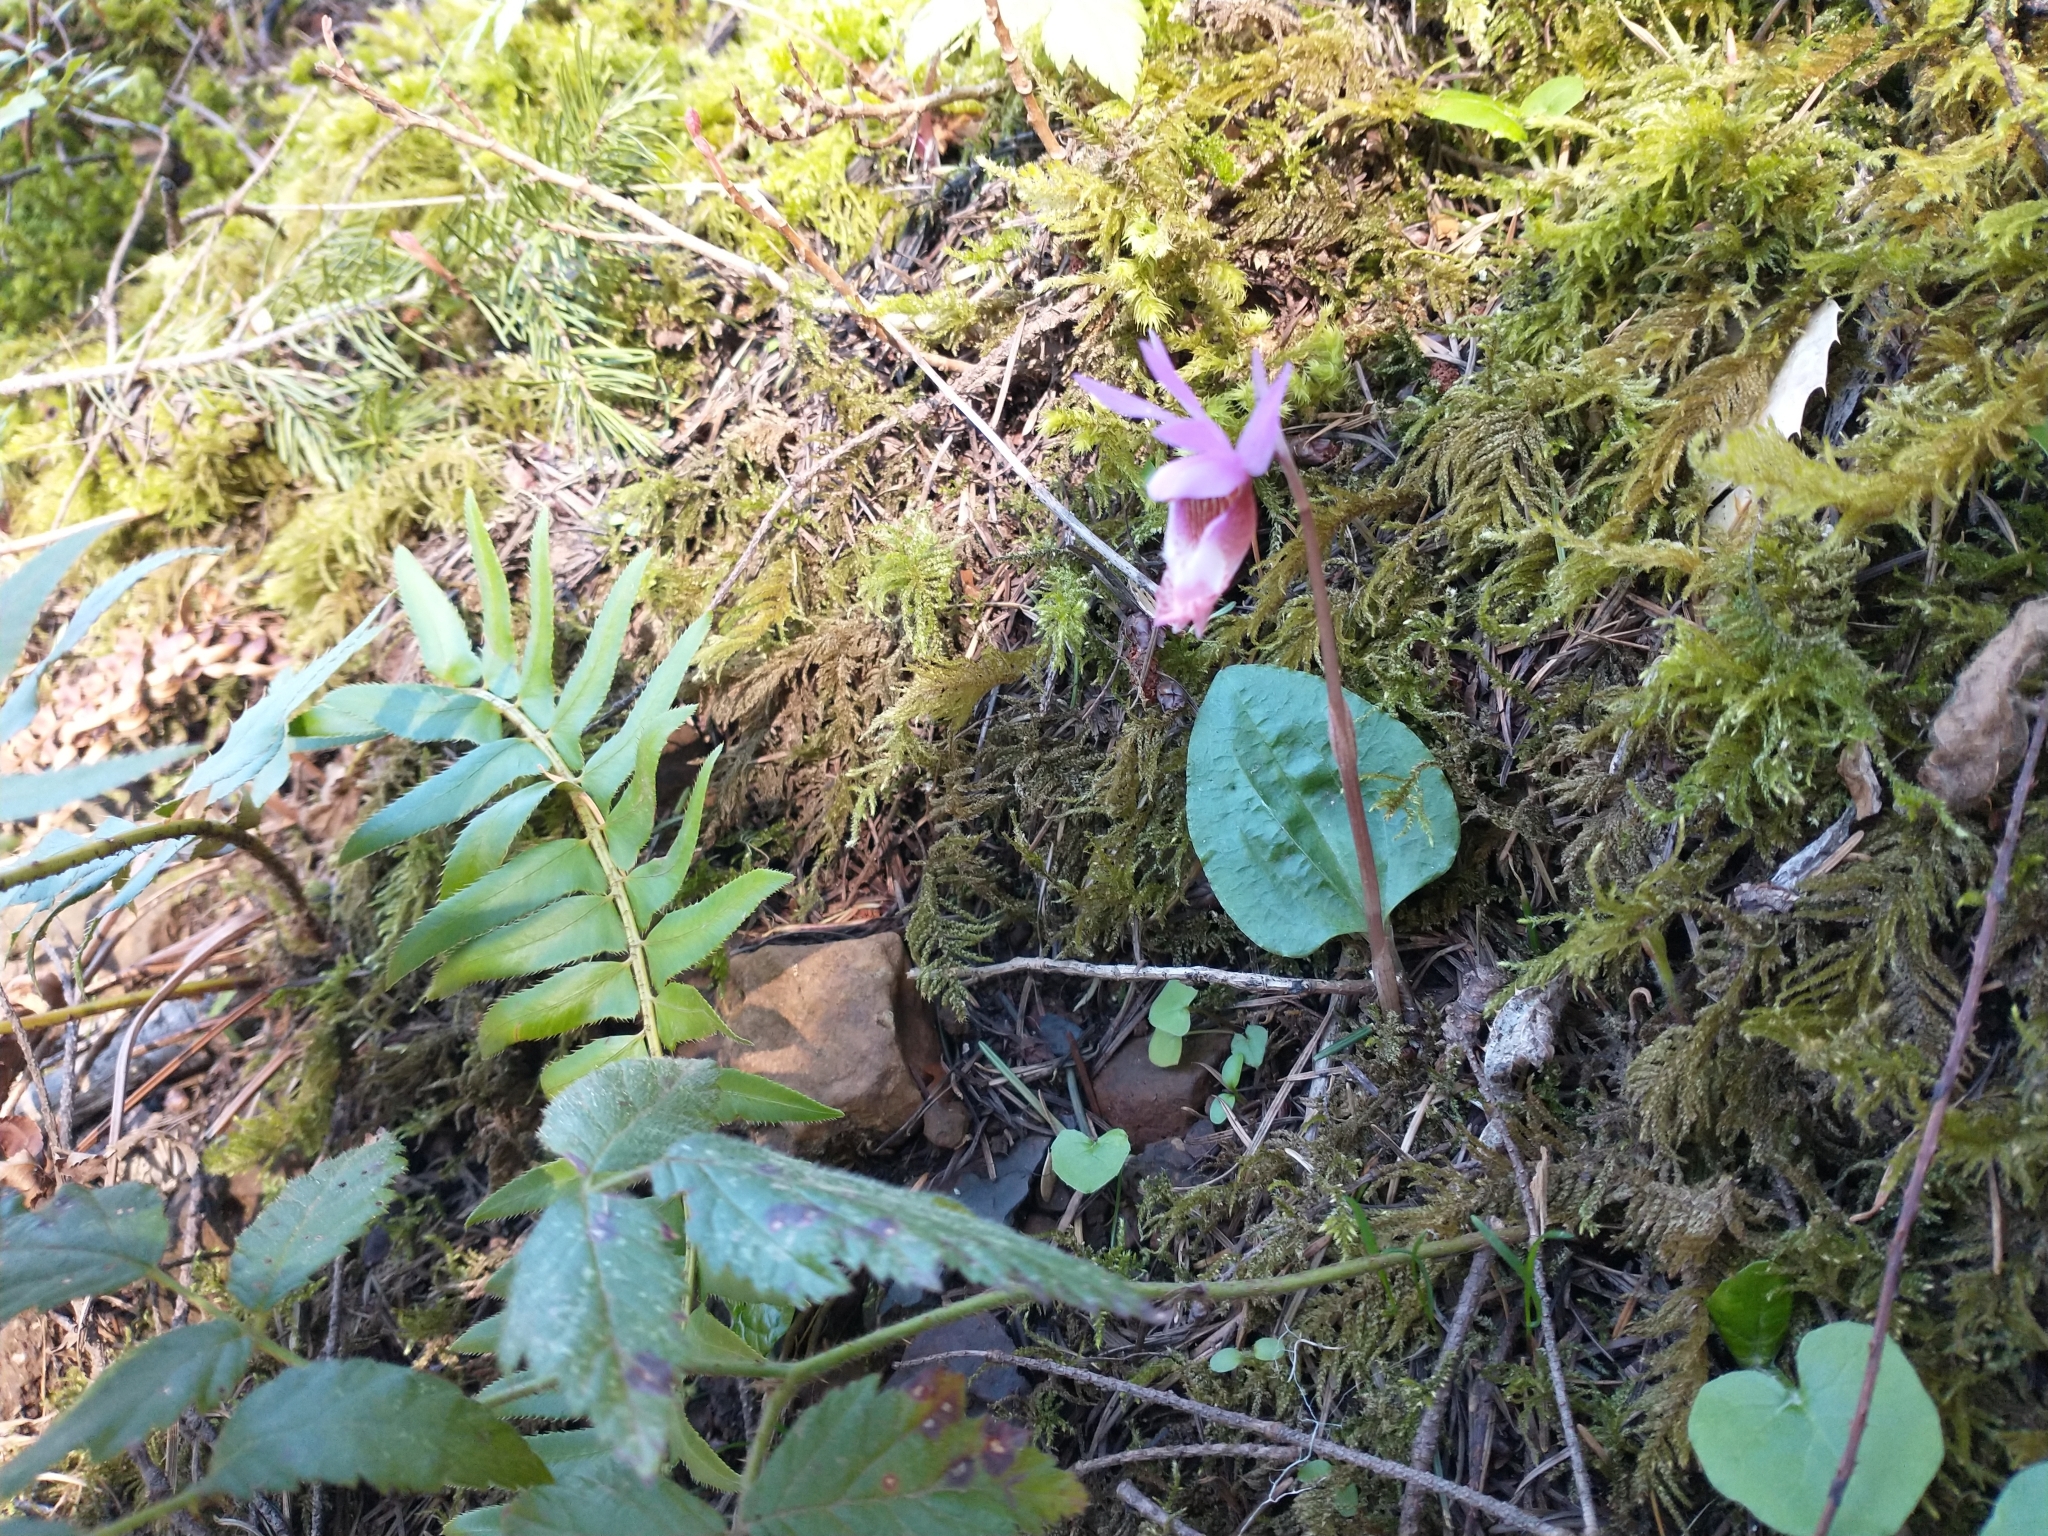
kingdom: Plantae
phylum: Tracheophyta
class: Liliopsida
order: Asparagales
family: Orchidaceae
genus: Calypso
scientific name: Calypso bulbosa
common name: Calypso
